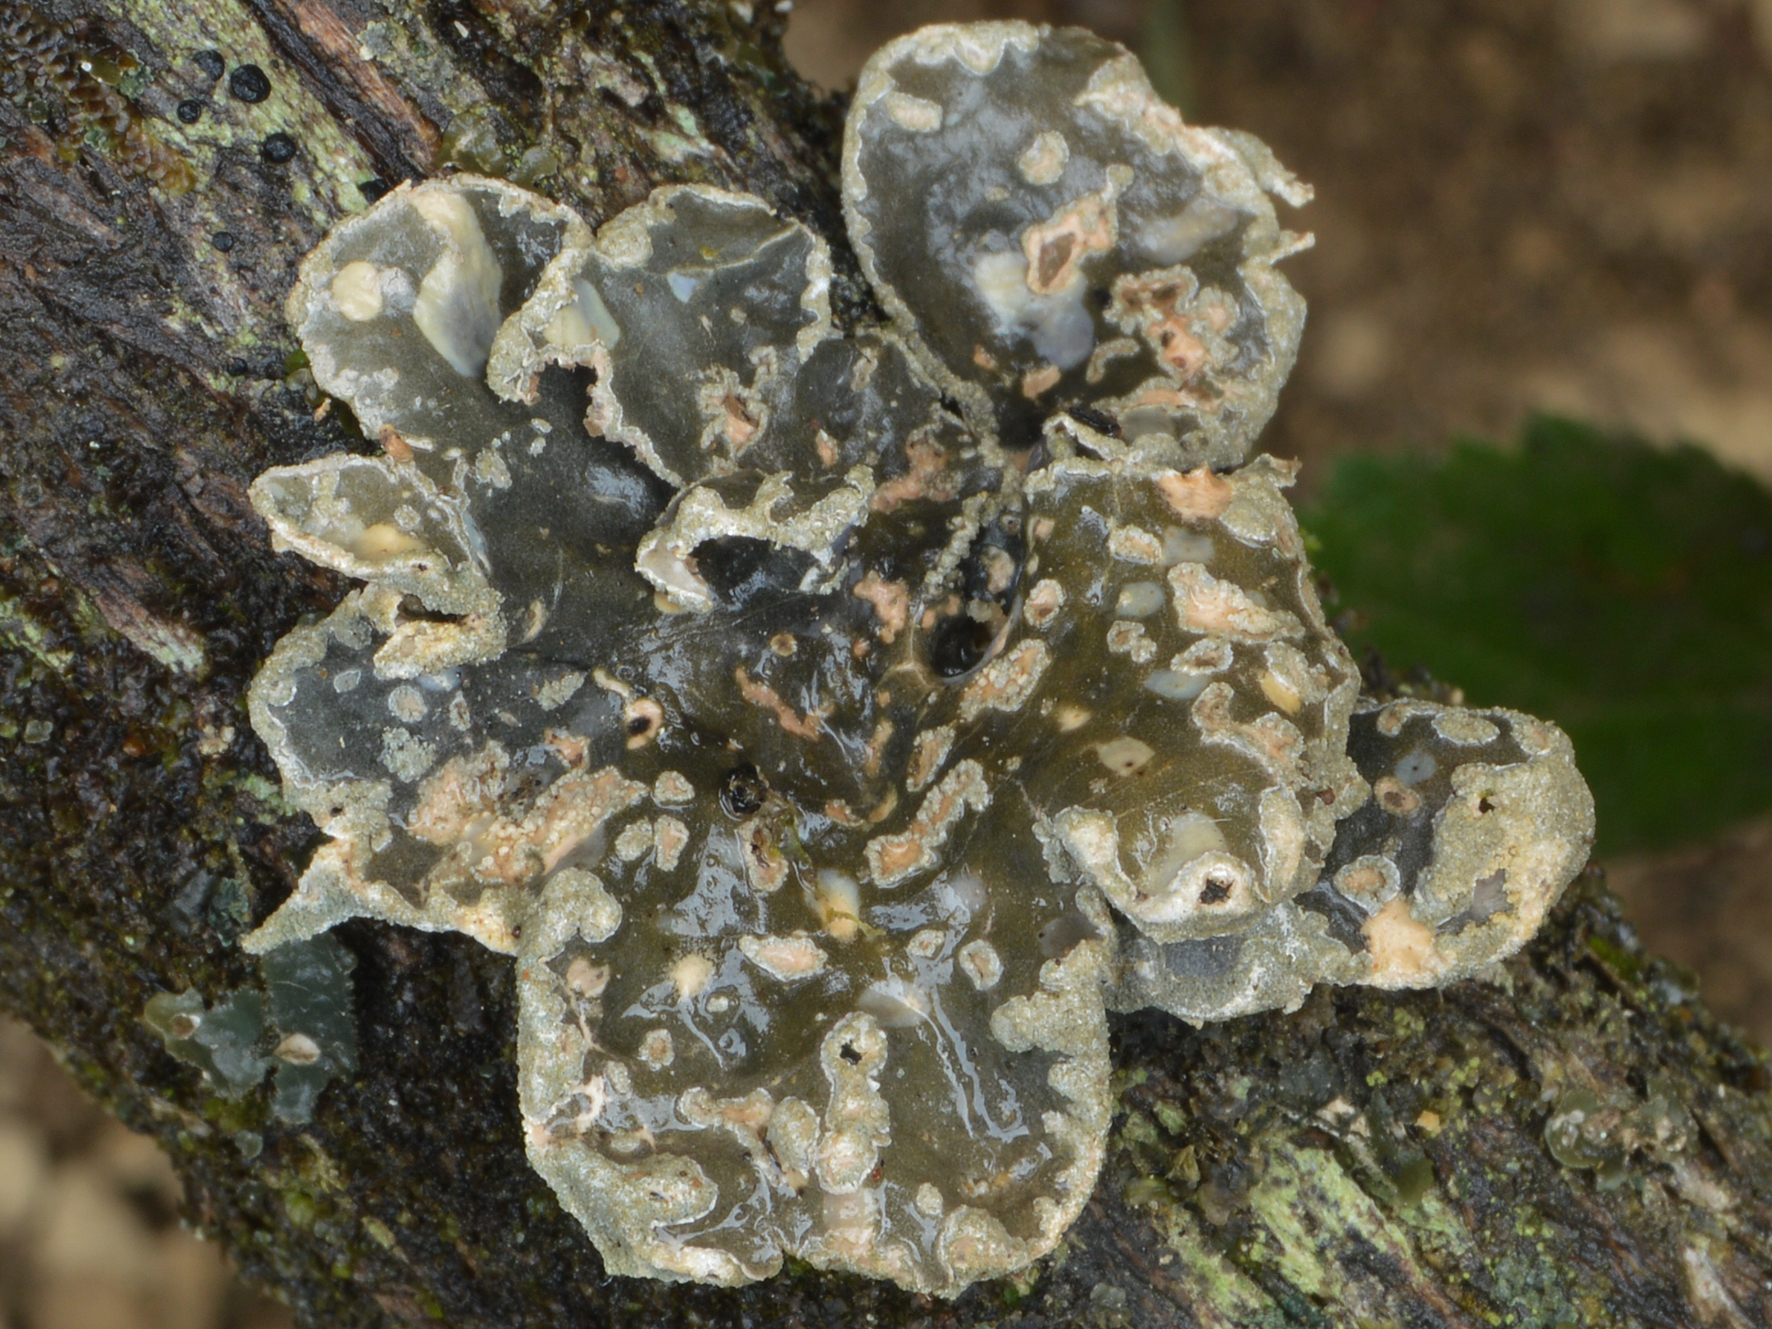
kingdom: Fungi
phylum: Ascomycota
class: Lecanoromycetes
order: Peltigerales
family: Lobariaceae
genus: Sticta
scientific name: Sticta limbata
